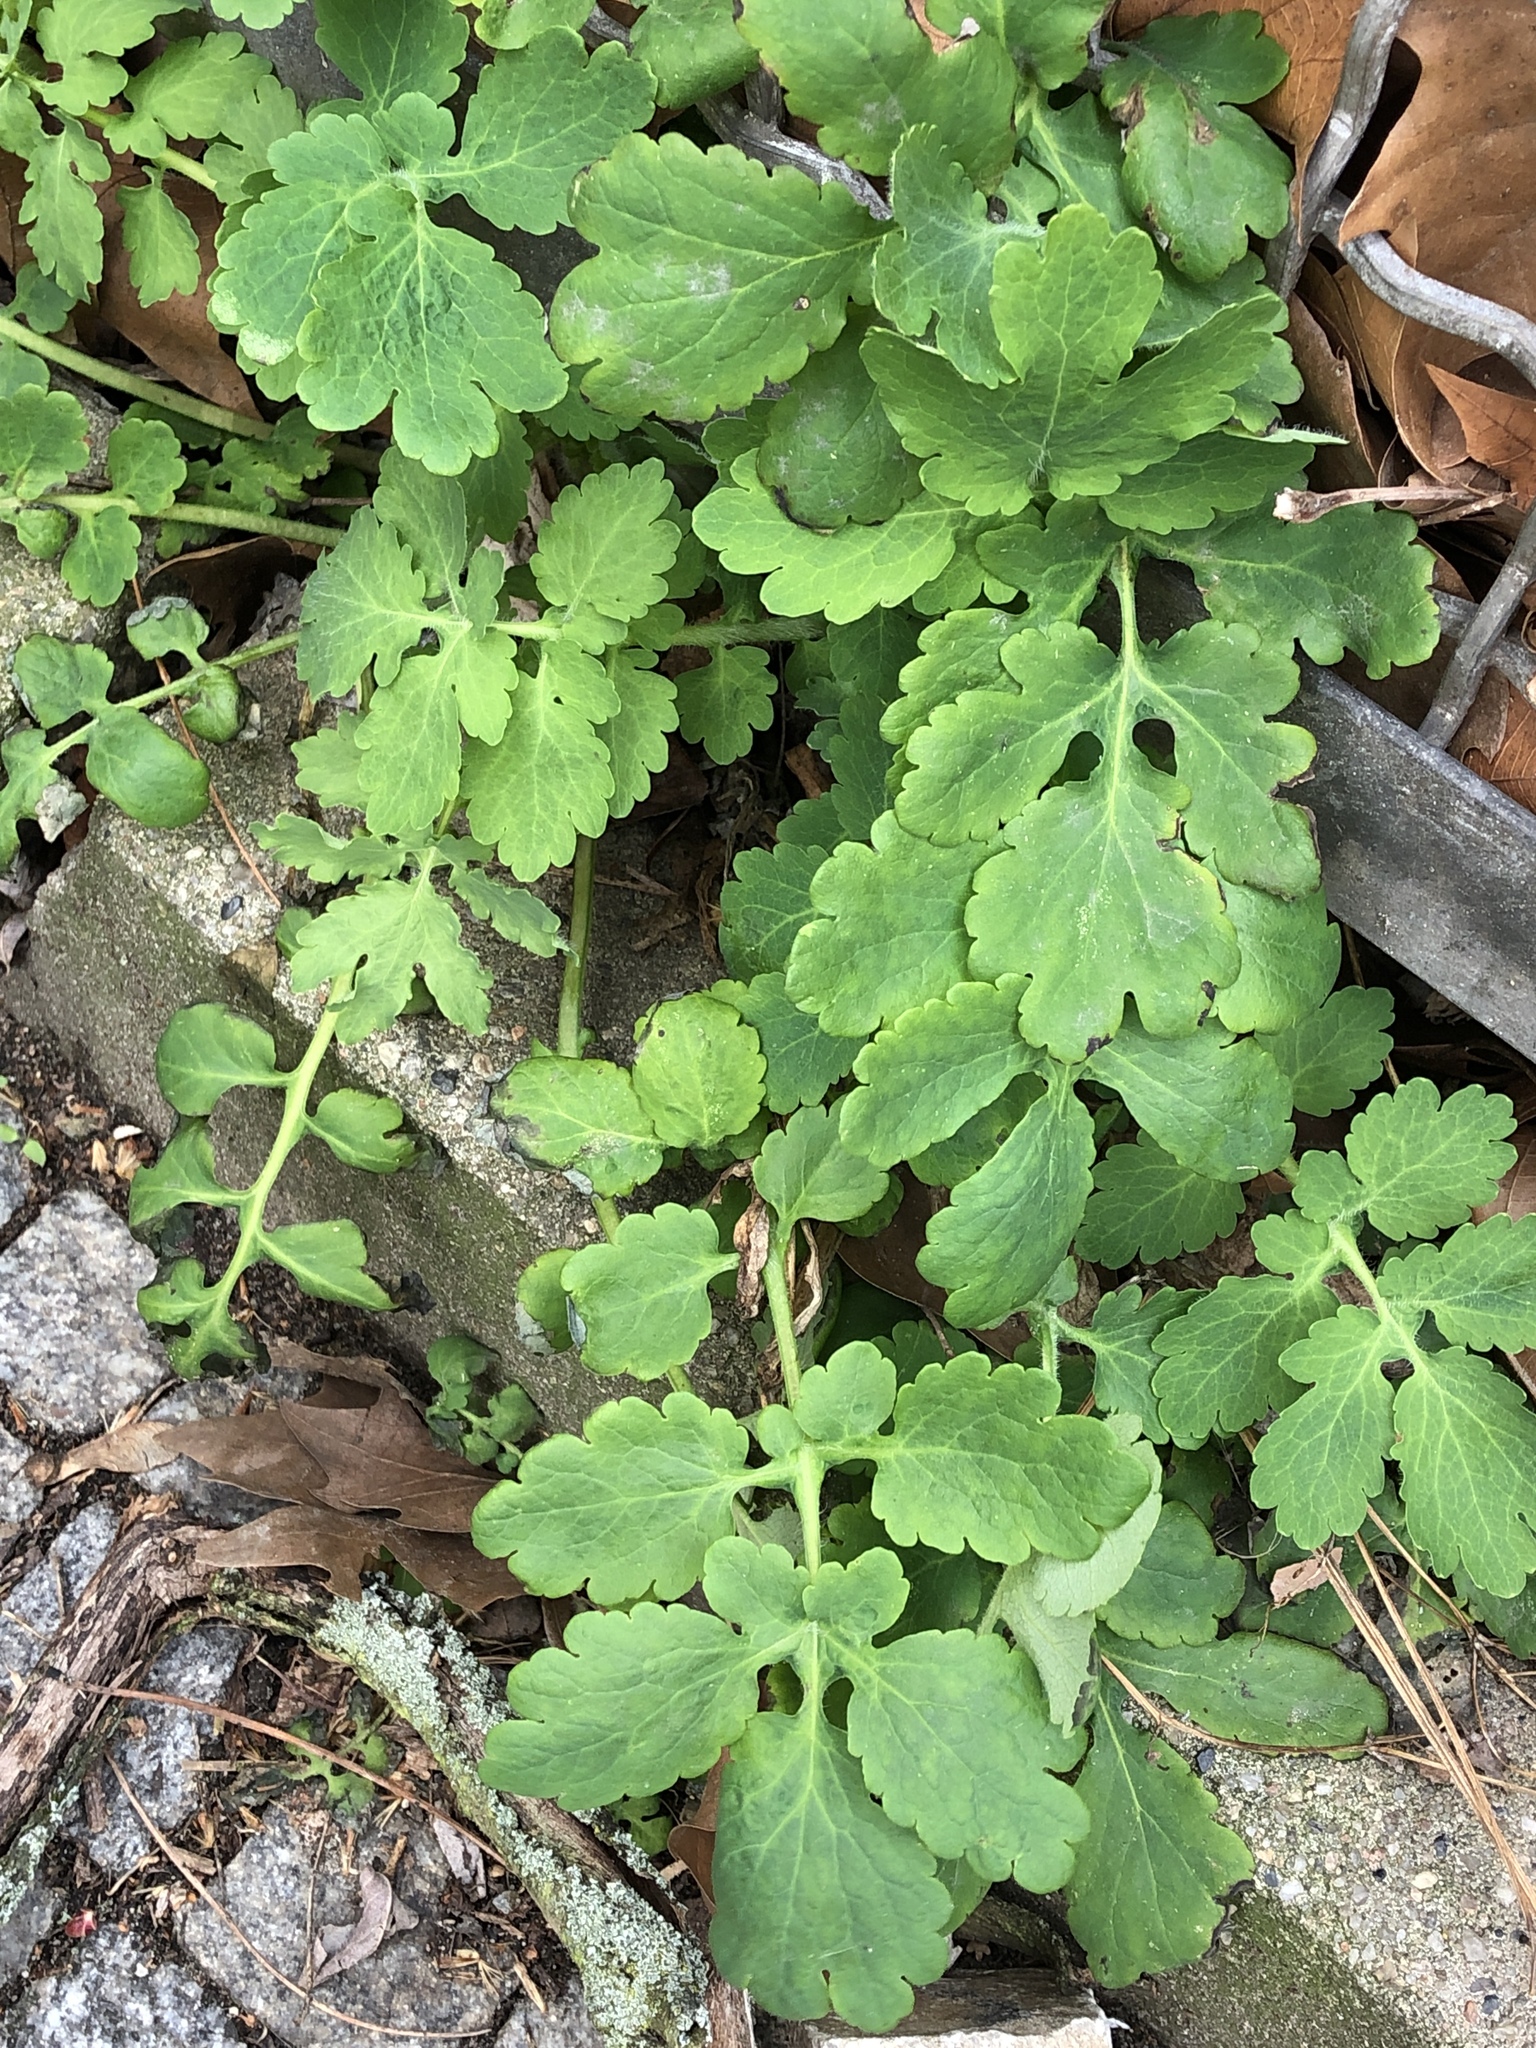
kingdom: Plantae
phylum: Tracheophyta
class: Magnoliopsida
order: Ranunculales
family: Papaveraceae
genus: Chelidonium
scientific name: Chelidonium majus
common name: Greater celandine
